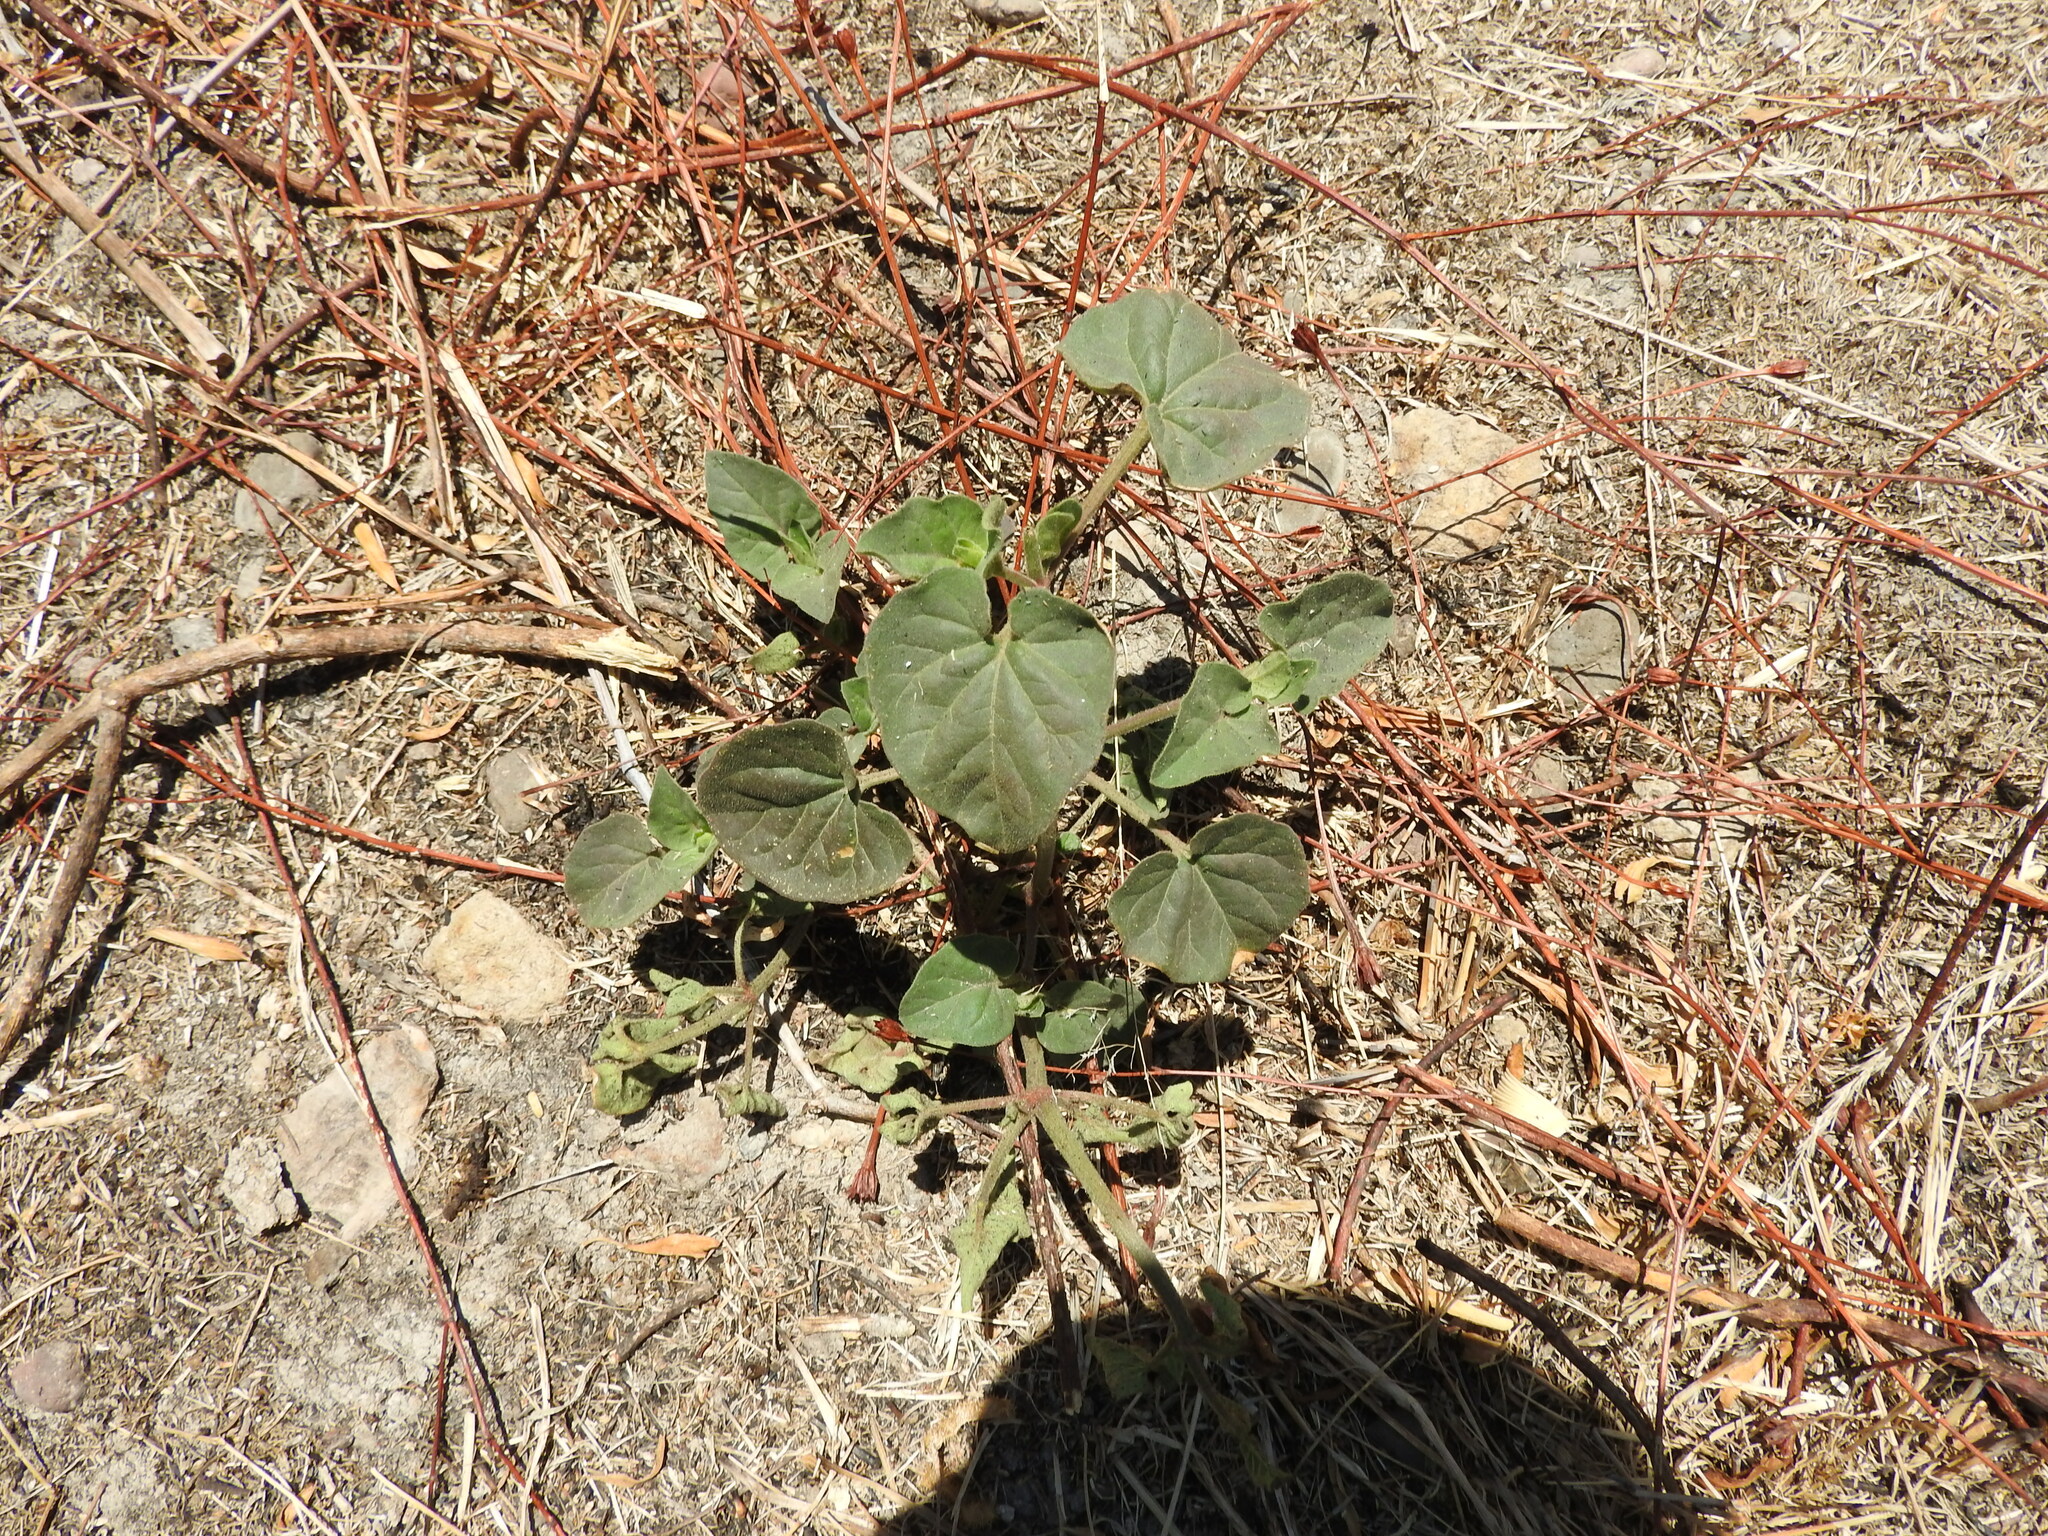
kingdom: Plantae
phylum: Tracheophyta
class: Magnoliopsida
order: Malvales
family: Malvaceae
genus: Malva
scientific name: Malva parviflora
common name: Least mallow
